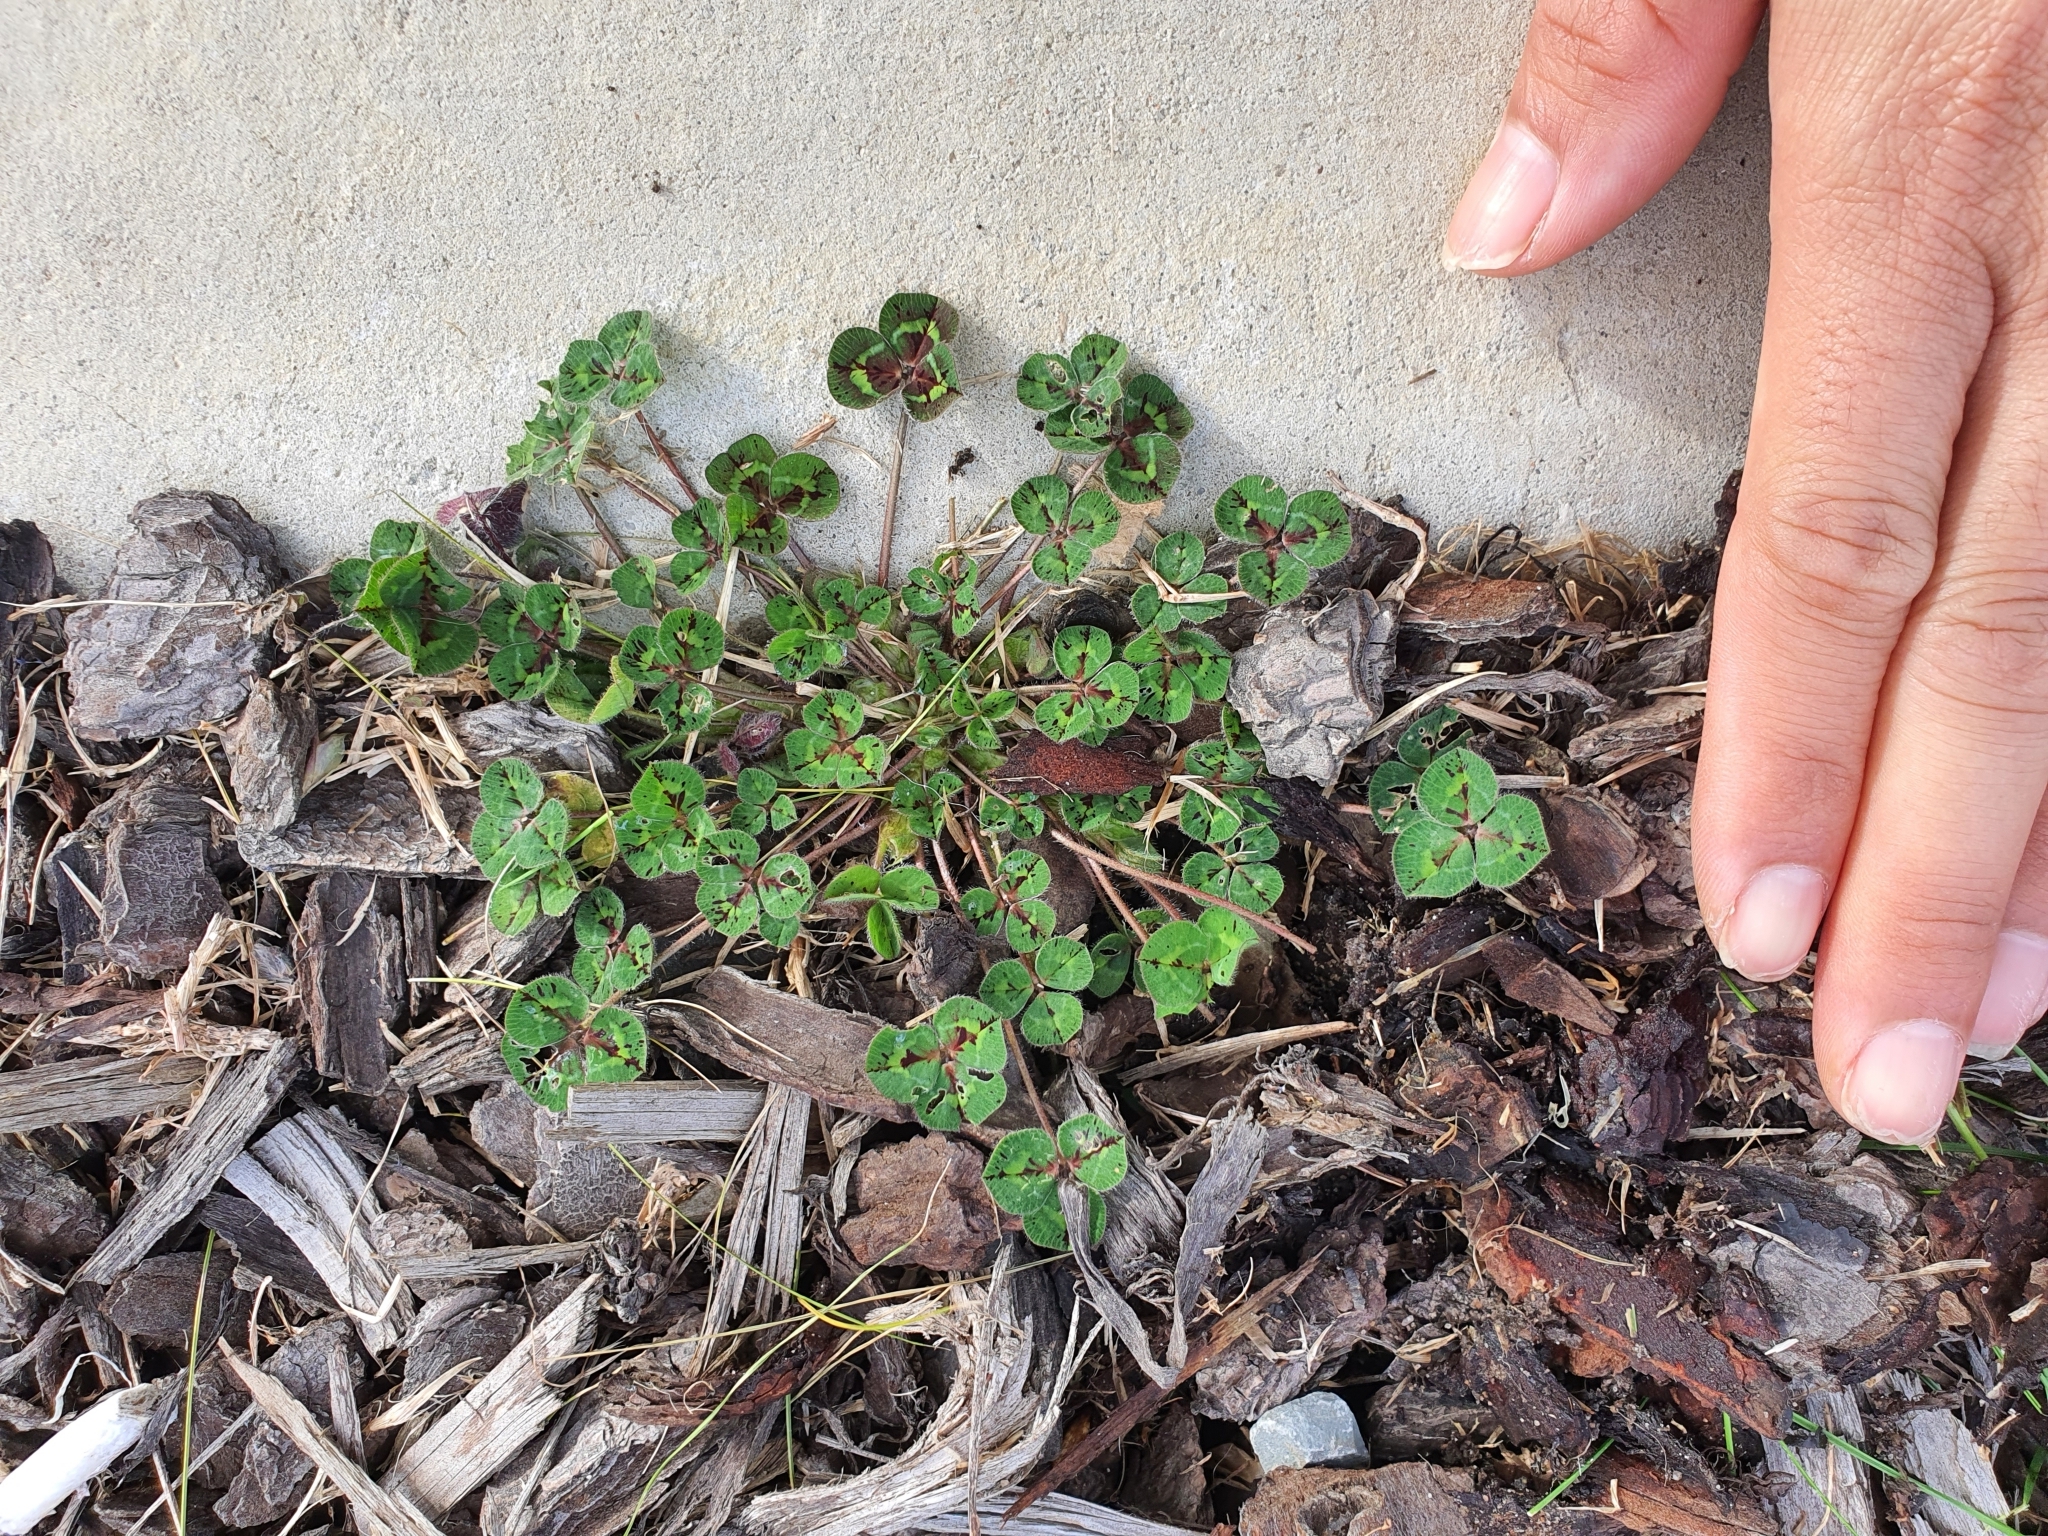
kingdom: Plantae
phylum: Tracheophyta
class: Magnoliopsida
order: Fabales
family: Fabaceae
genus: Trifolium
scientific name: Trifolium subterraneum
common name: Subterranean clover
